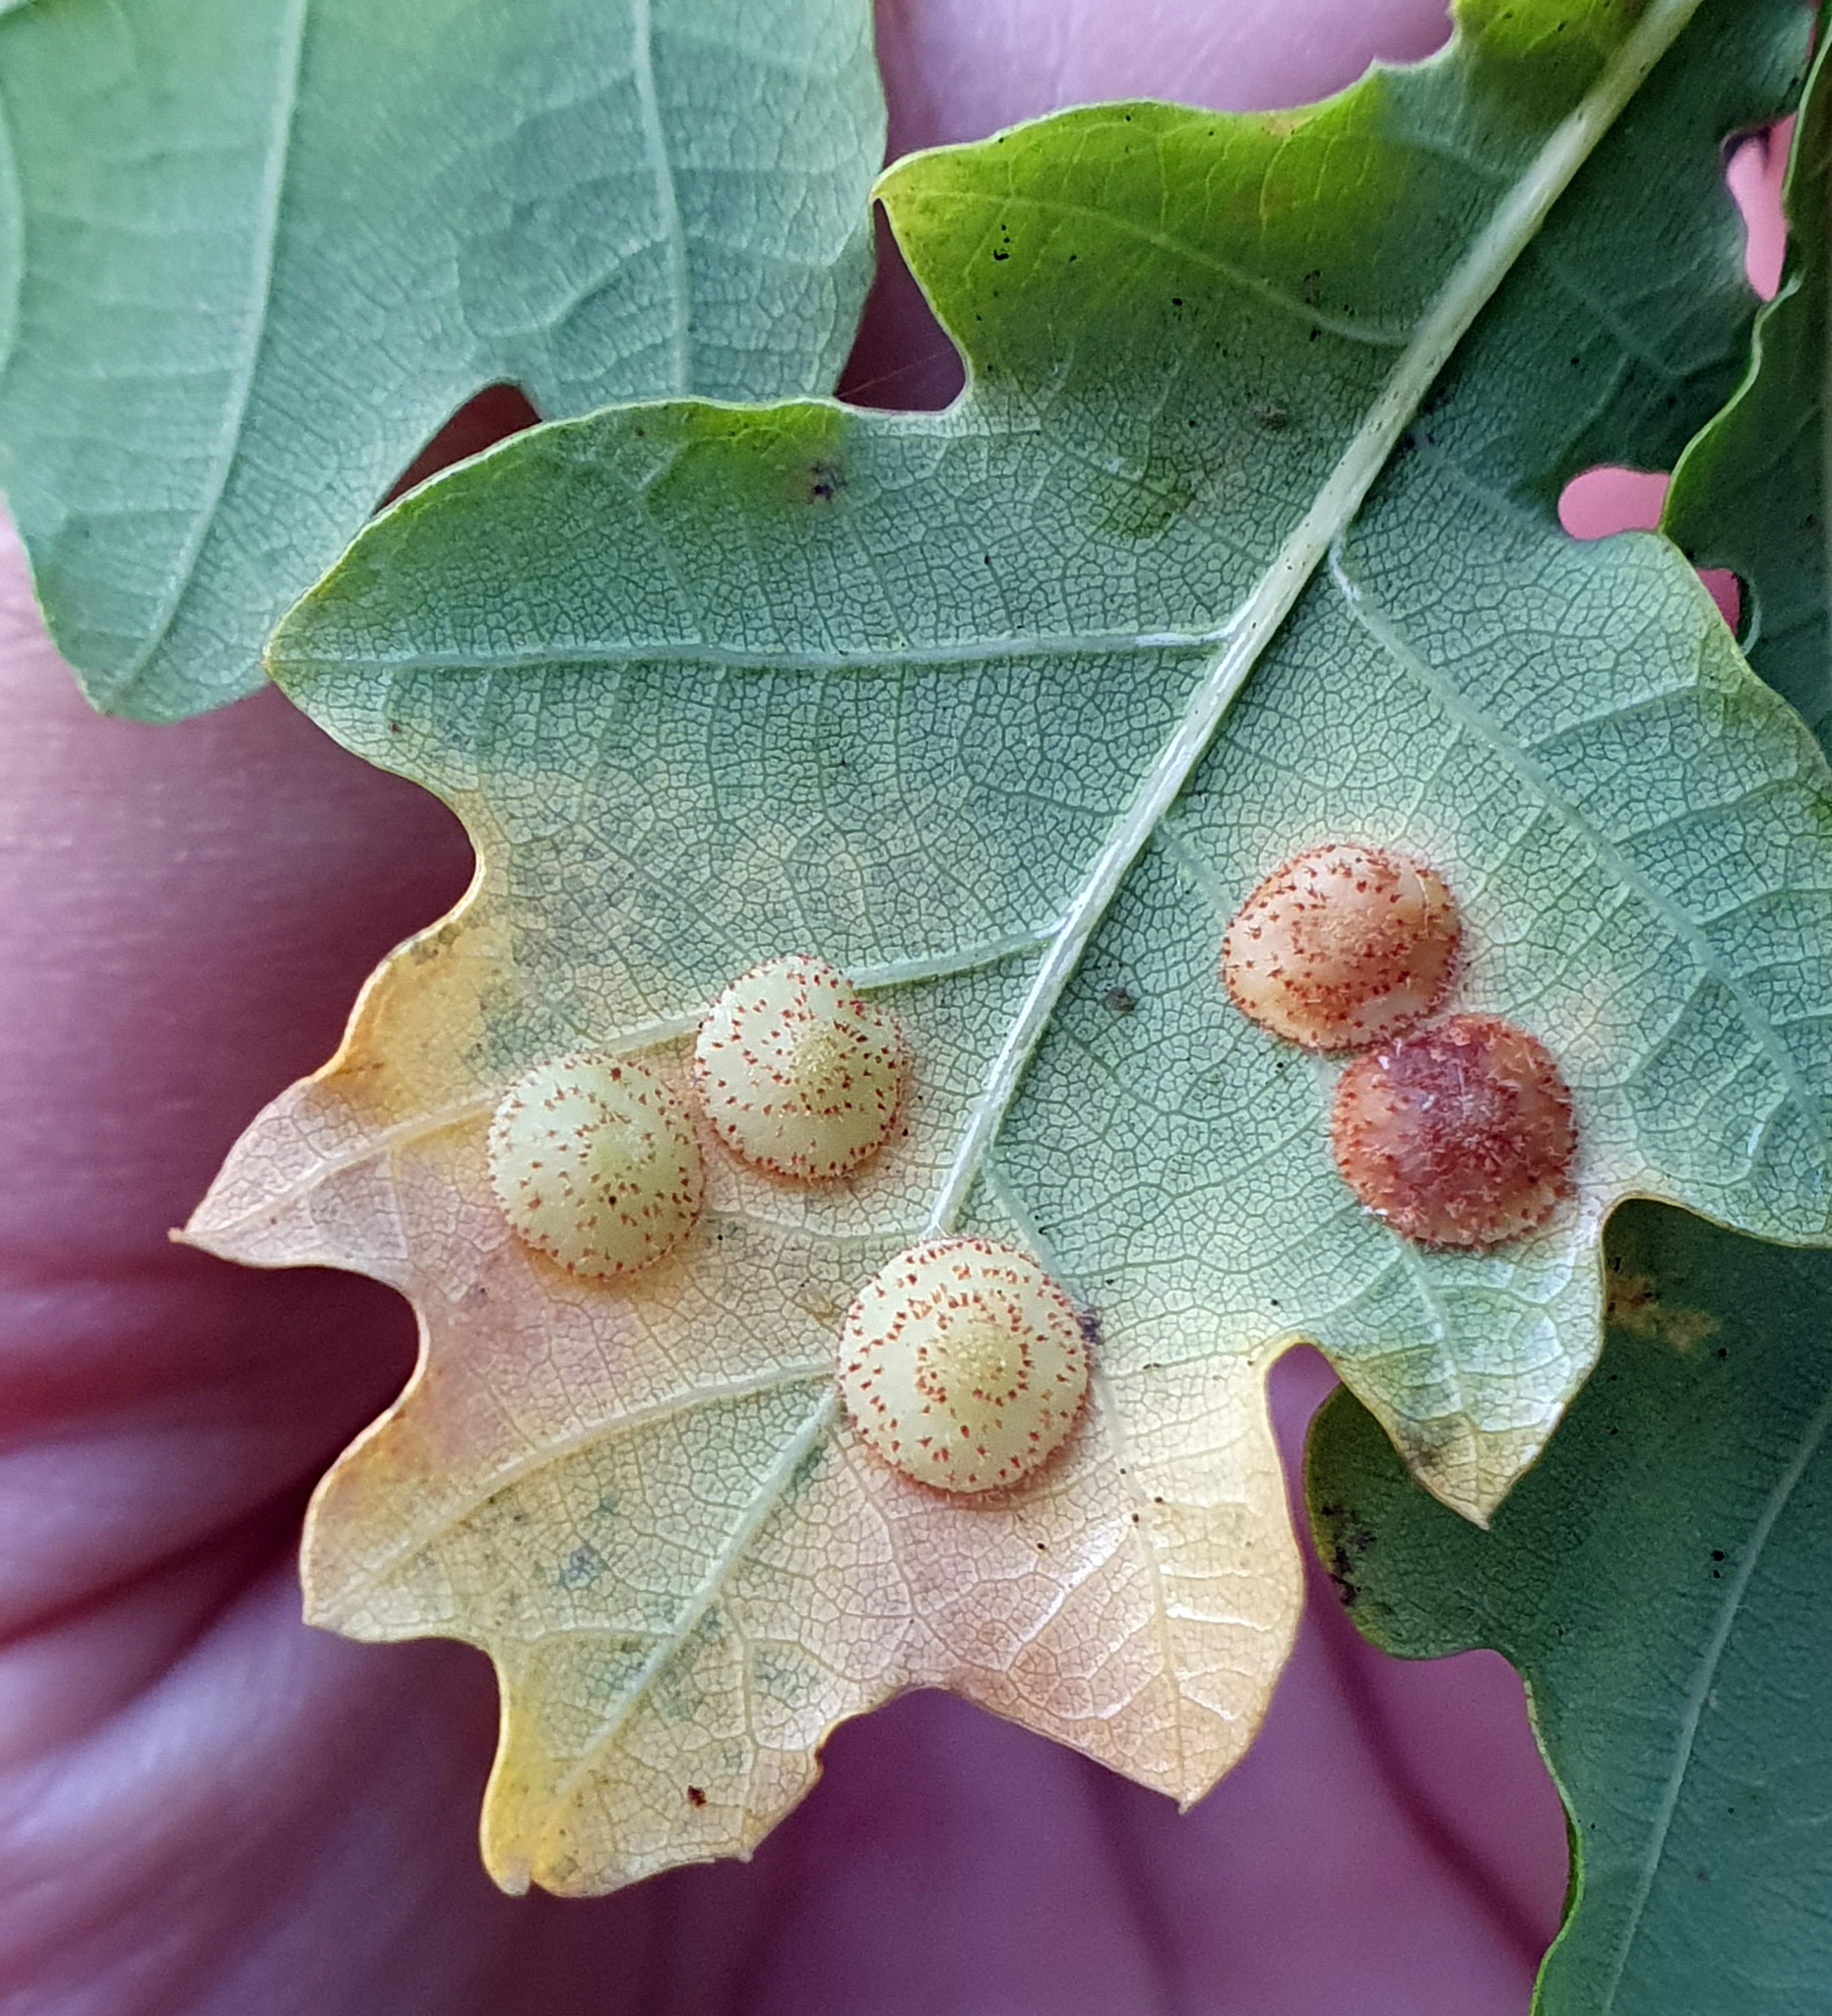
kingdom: Animalia
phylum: Arthropoda
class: Insecta
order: Hymenoptera
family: Cynipidae
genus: Neuroterus
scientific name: Neuroterus quercusbaccarum
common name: Common spangle gall
